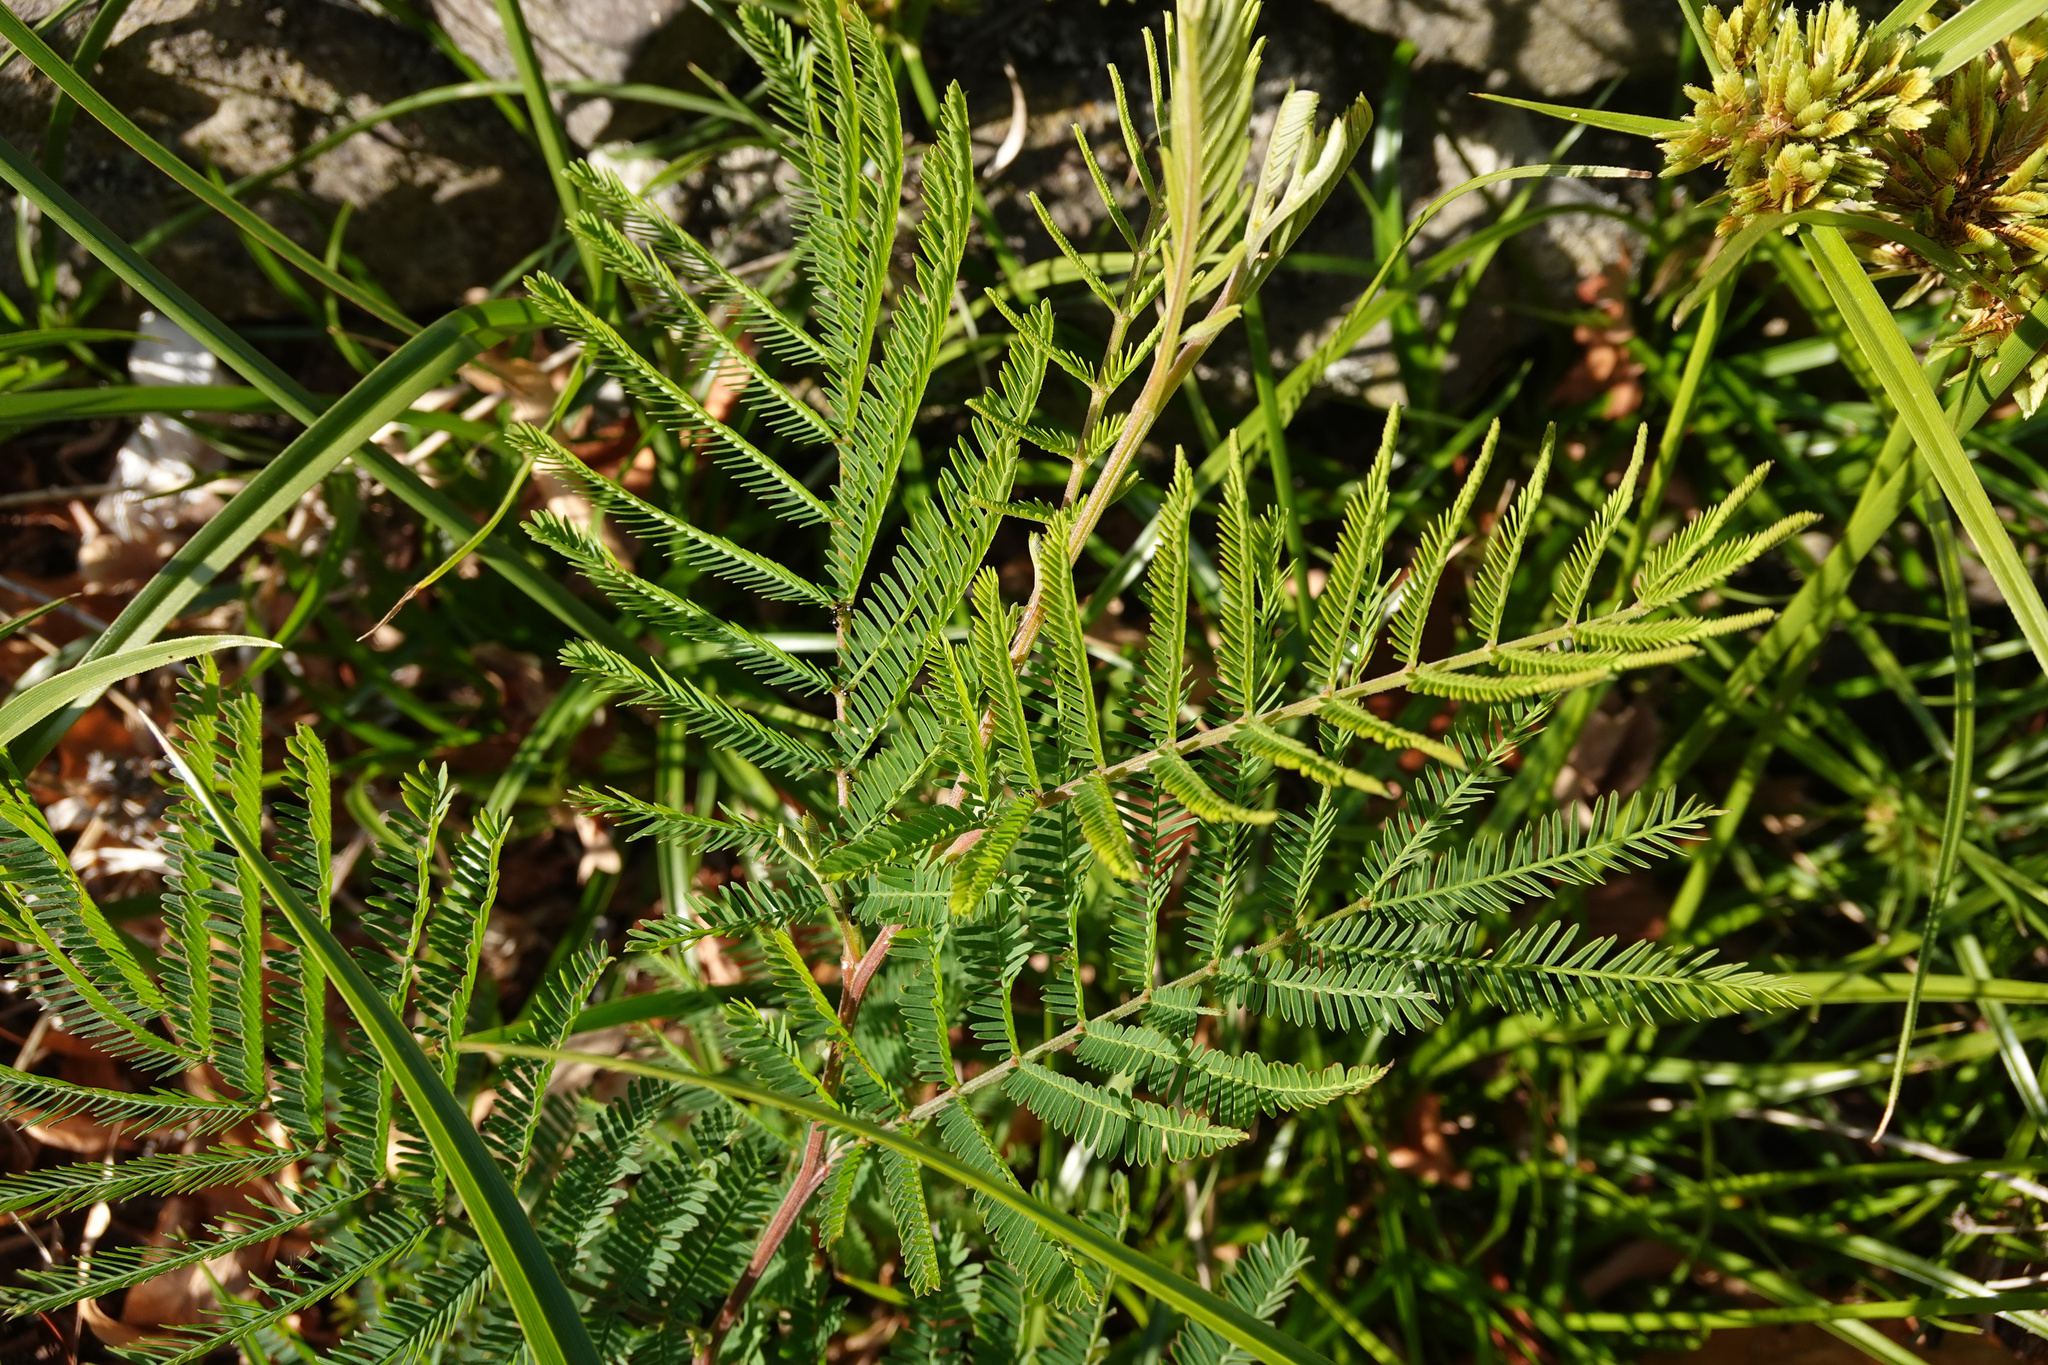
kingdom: Plantae
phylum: Tracheophyta
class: Magnoliopsida
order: Fabales
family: Fabaceae
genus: Paraserianthes
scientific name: Paraserianthes lophantha
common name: Plume albizia
